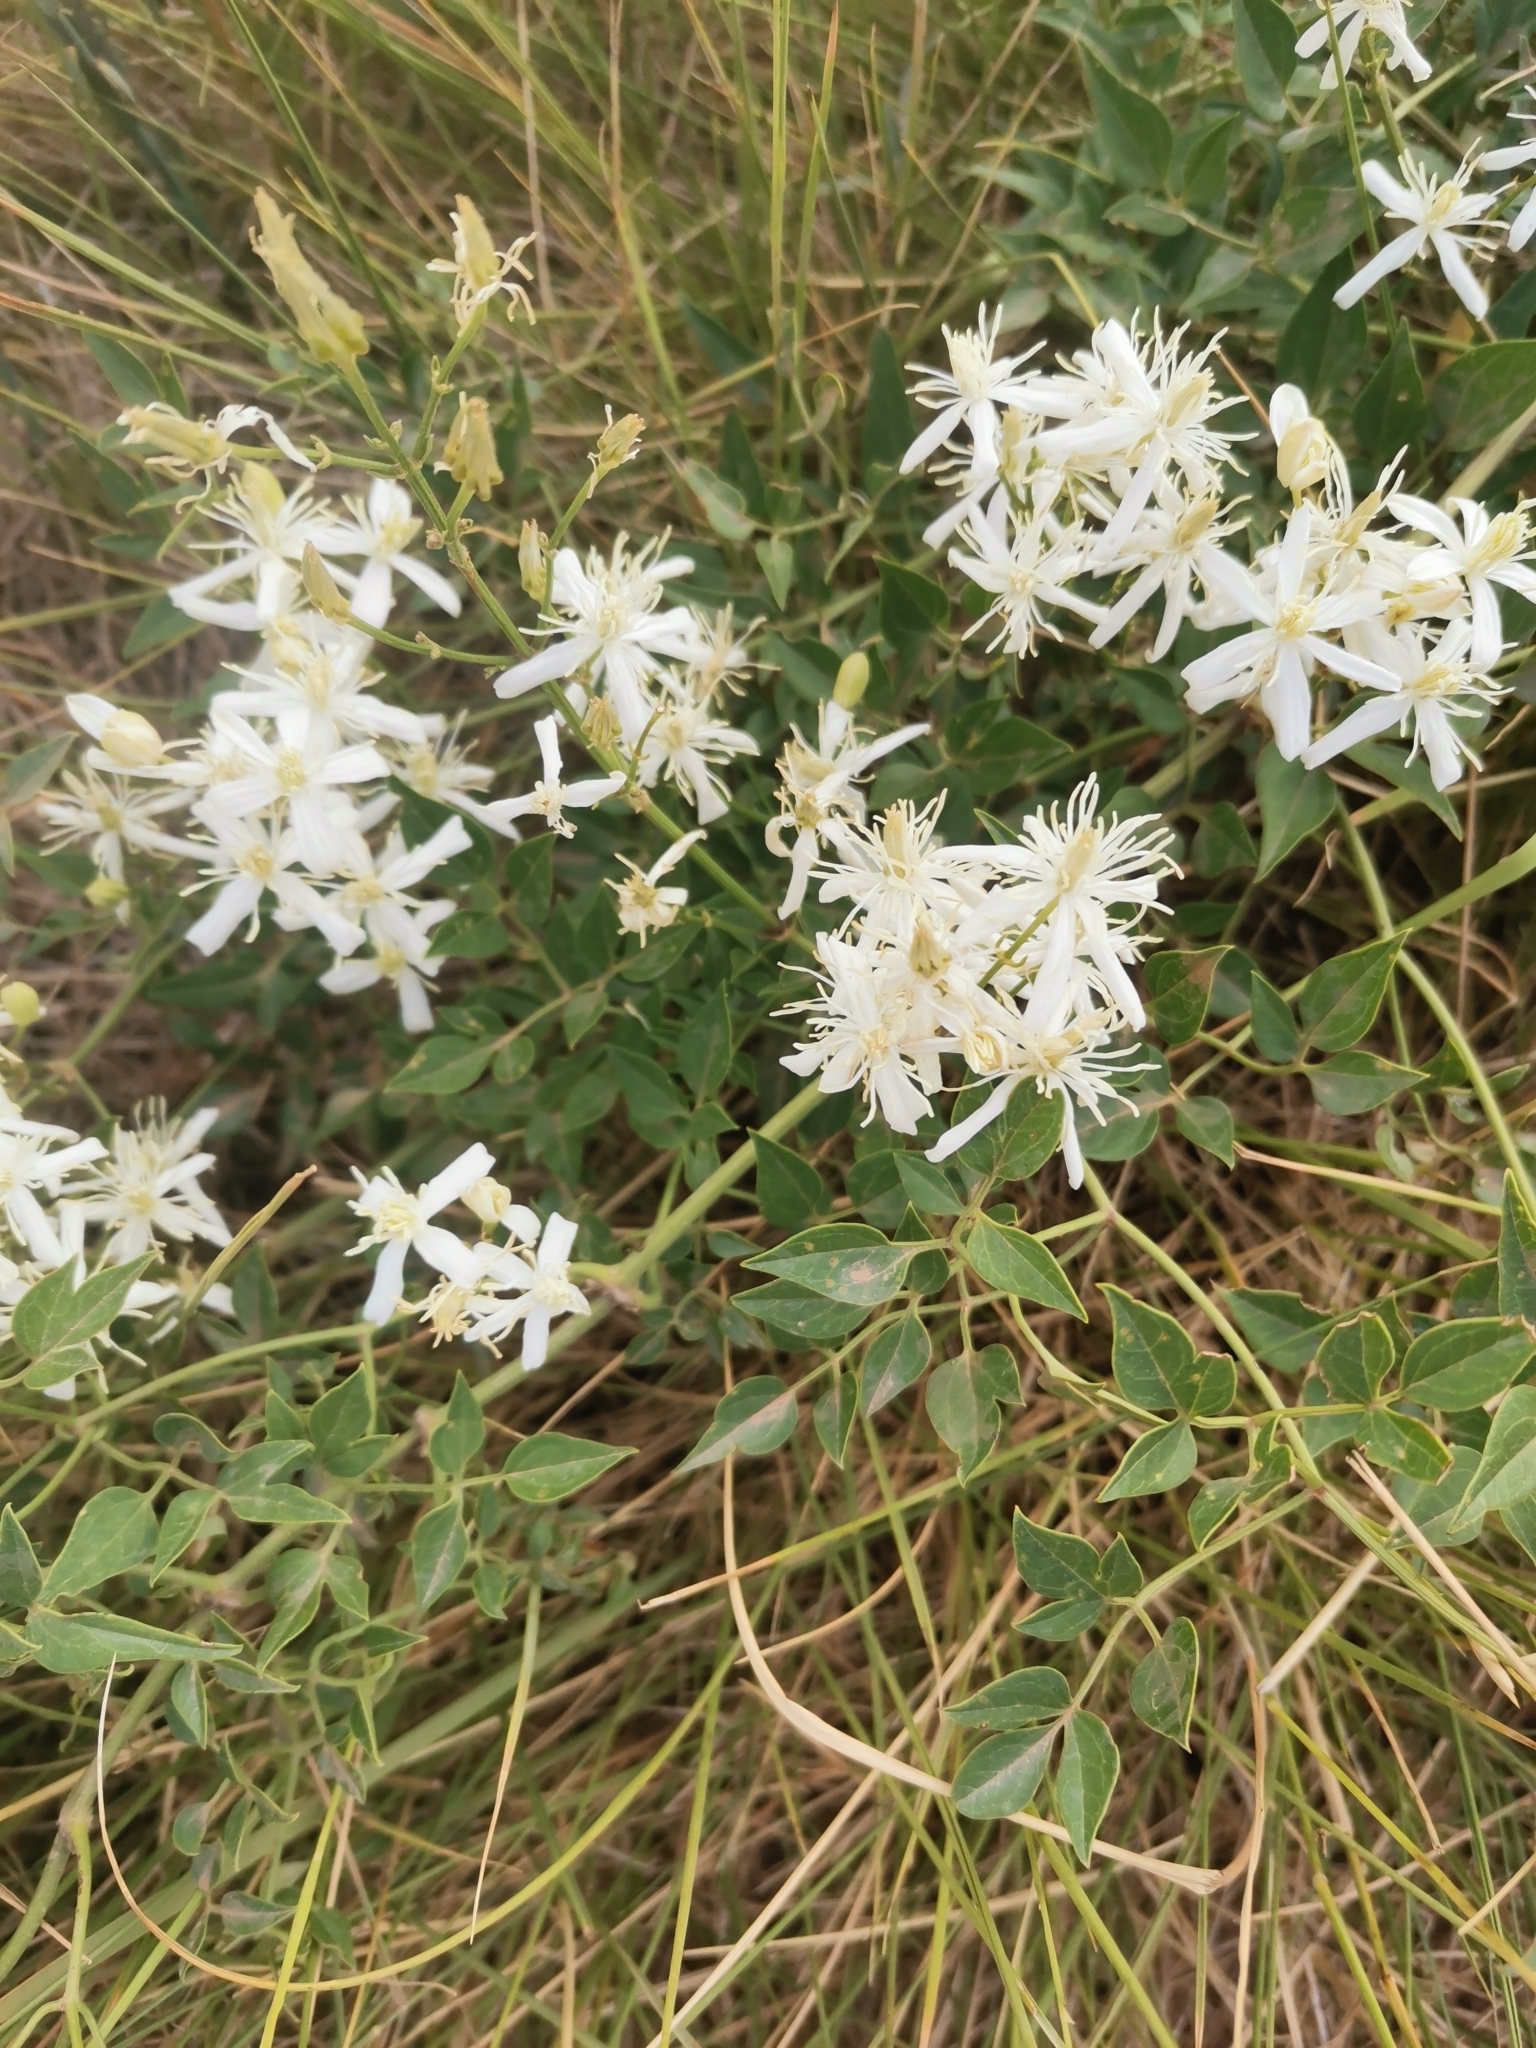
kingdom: Plantae
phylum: Tracheophyta
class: Magnoliopsida
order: Ranunculales
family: Ranunculaceae
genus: Clematis
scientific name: Clematis flammula
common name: Virgin's-bower
